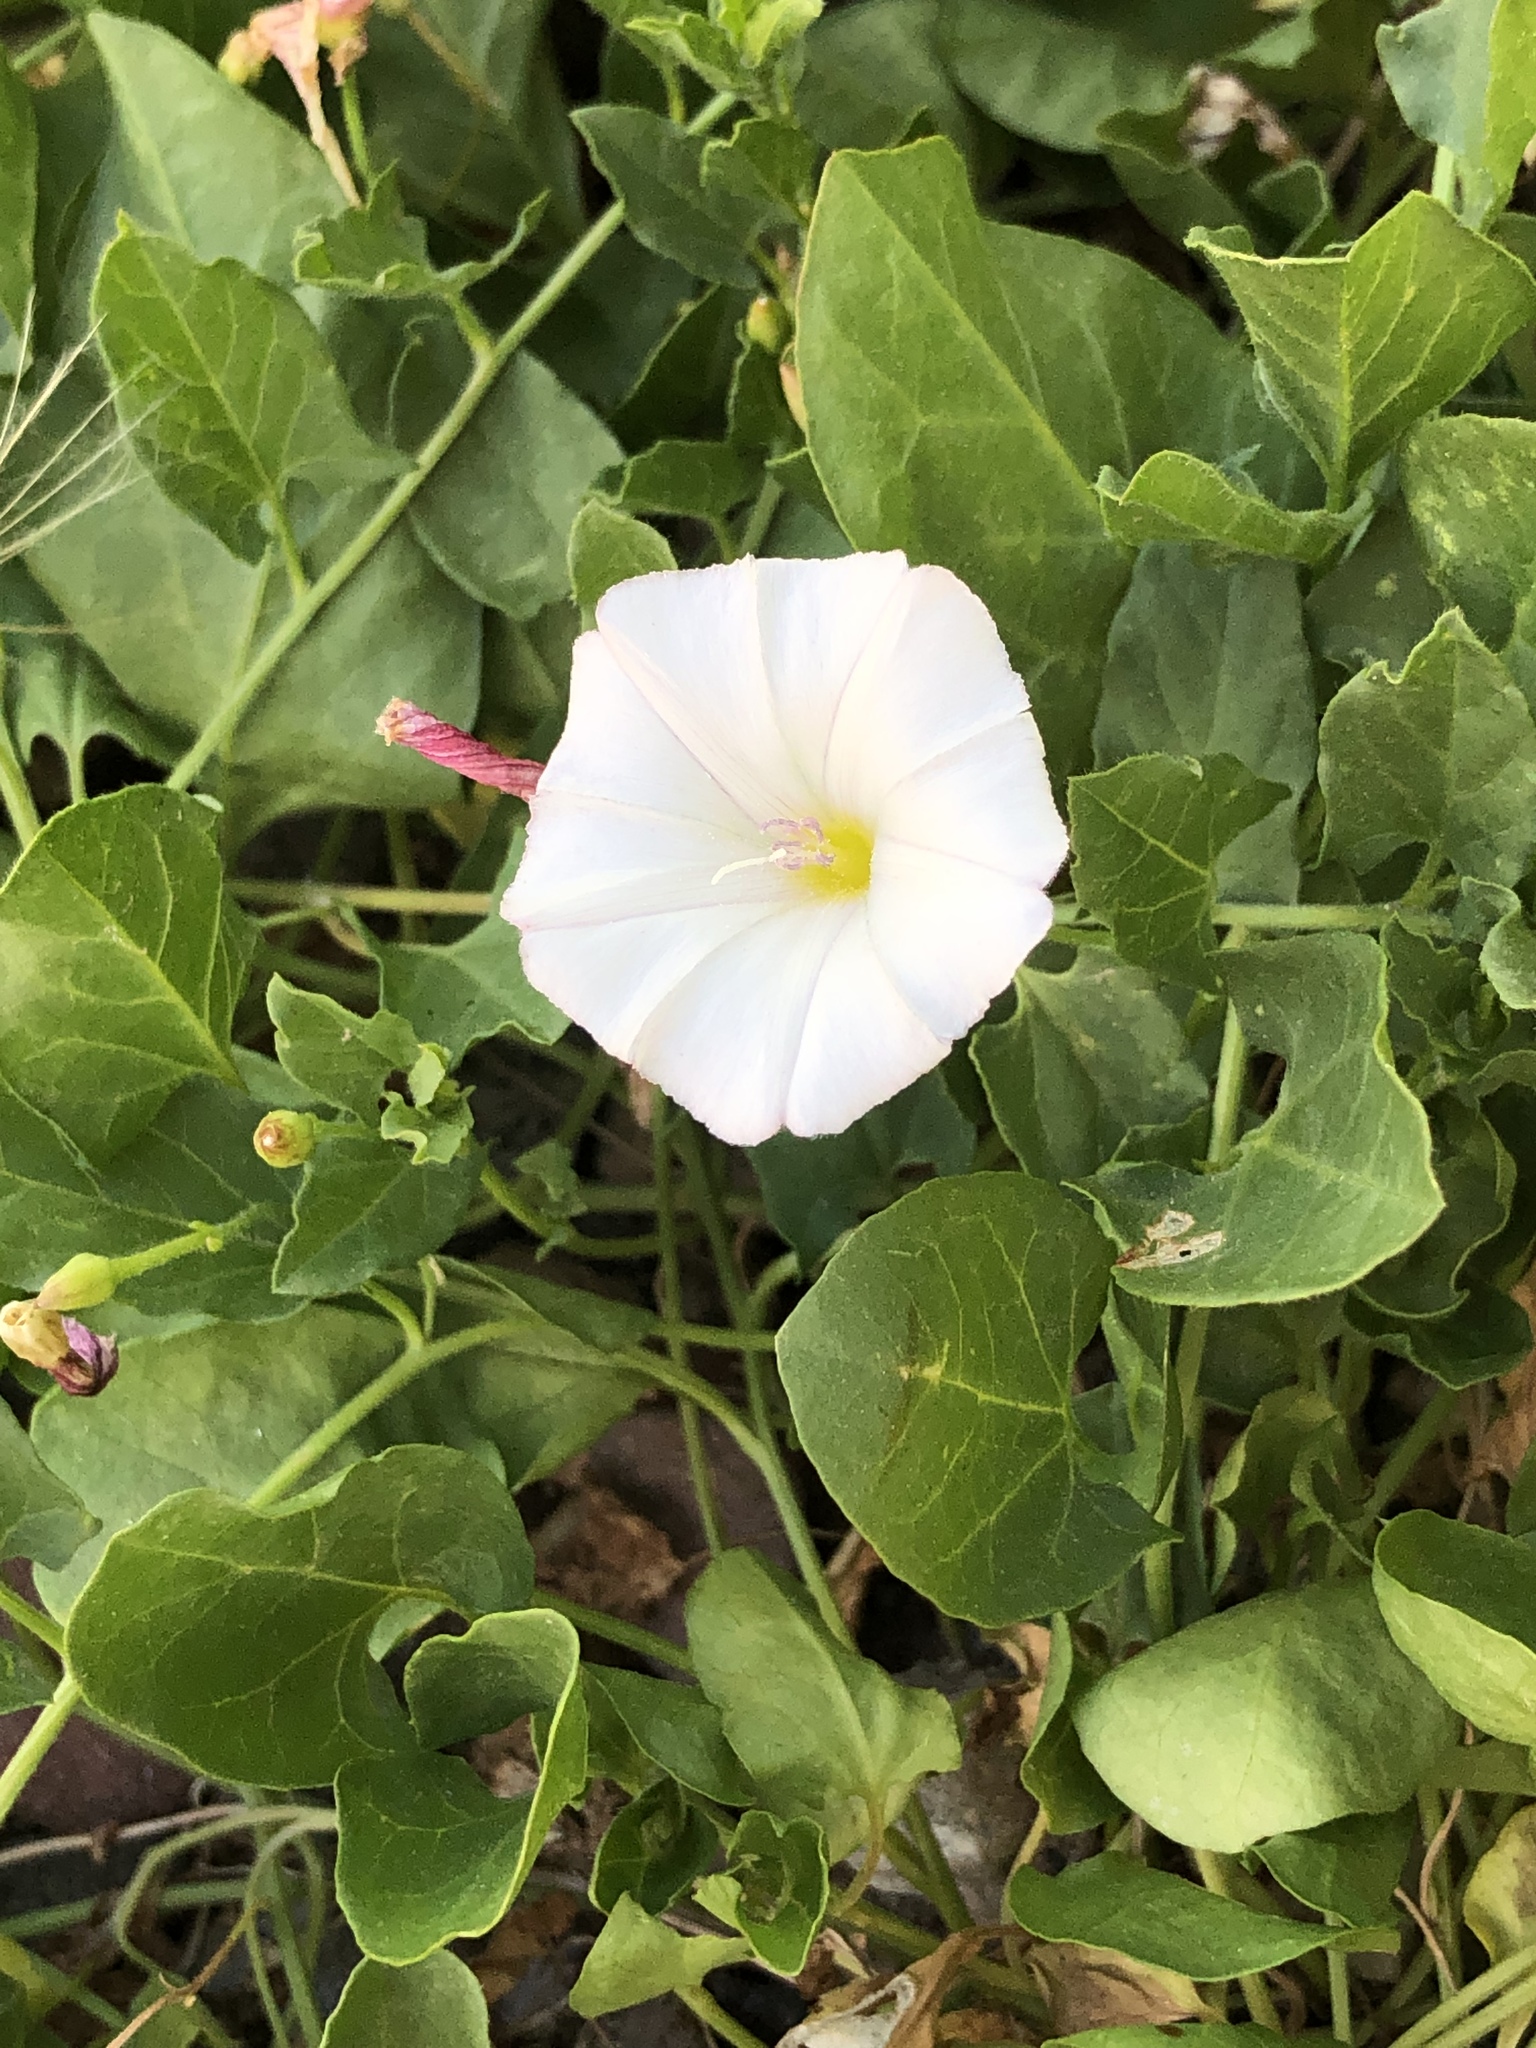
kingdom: Plantae
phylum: Tracheophyta
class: Magnoliopsida
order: Solanales
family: Convolvulaceae
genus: Convolvulus
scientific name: Convolvulus arvensis
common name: Field bindweed
